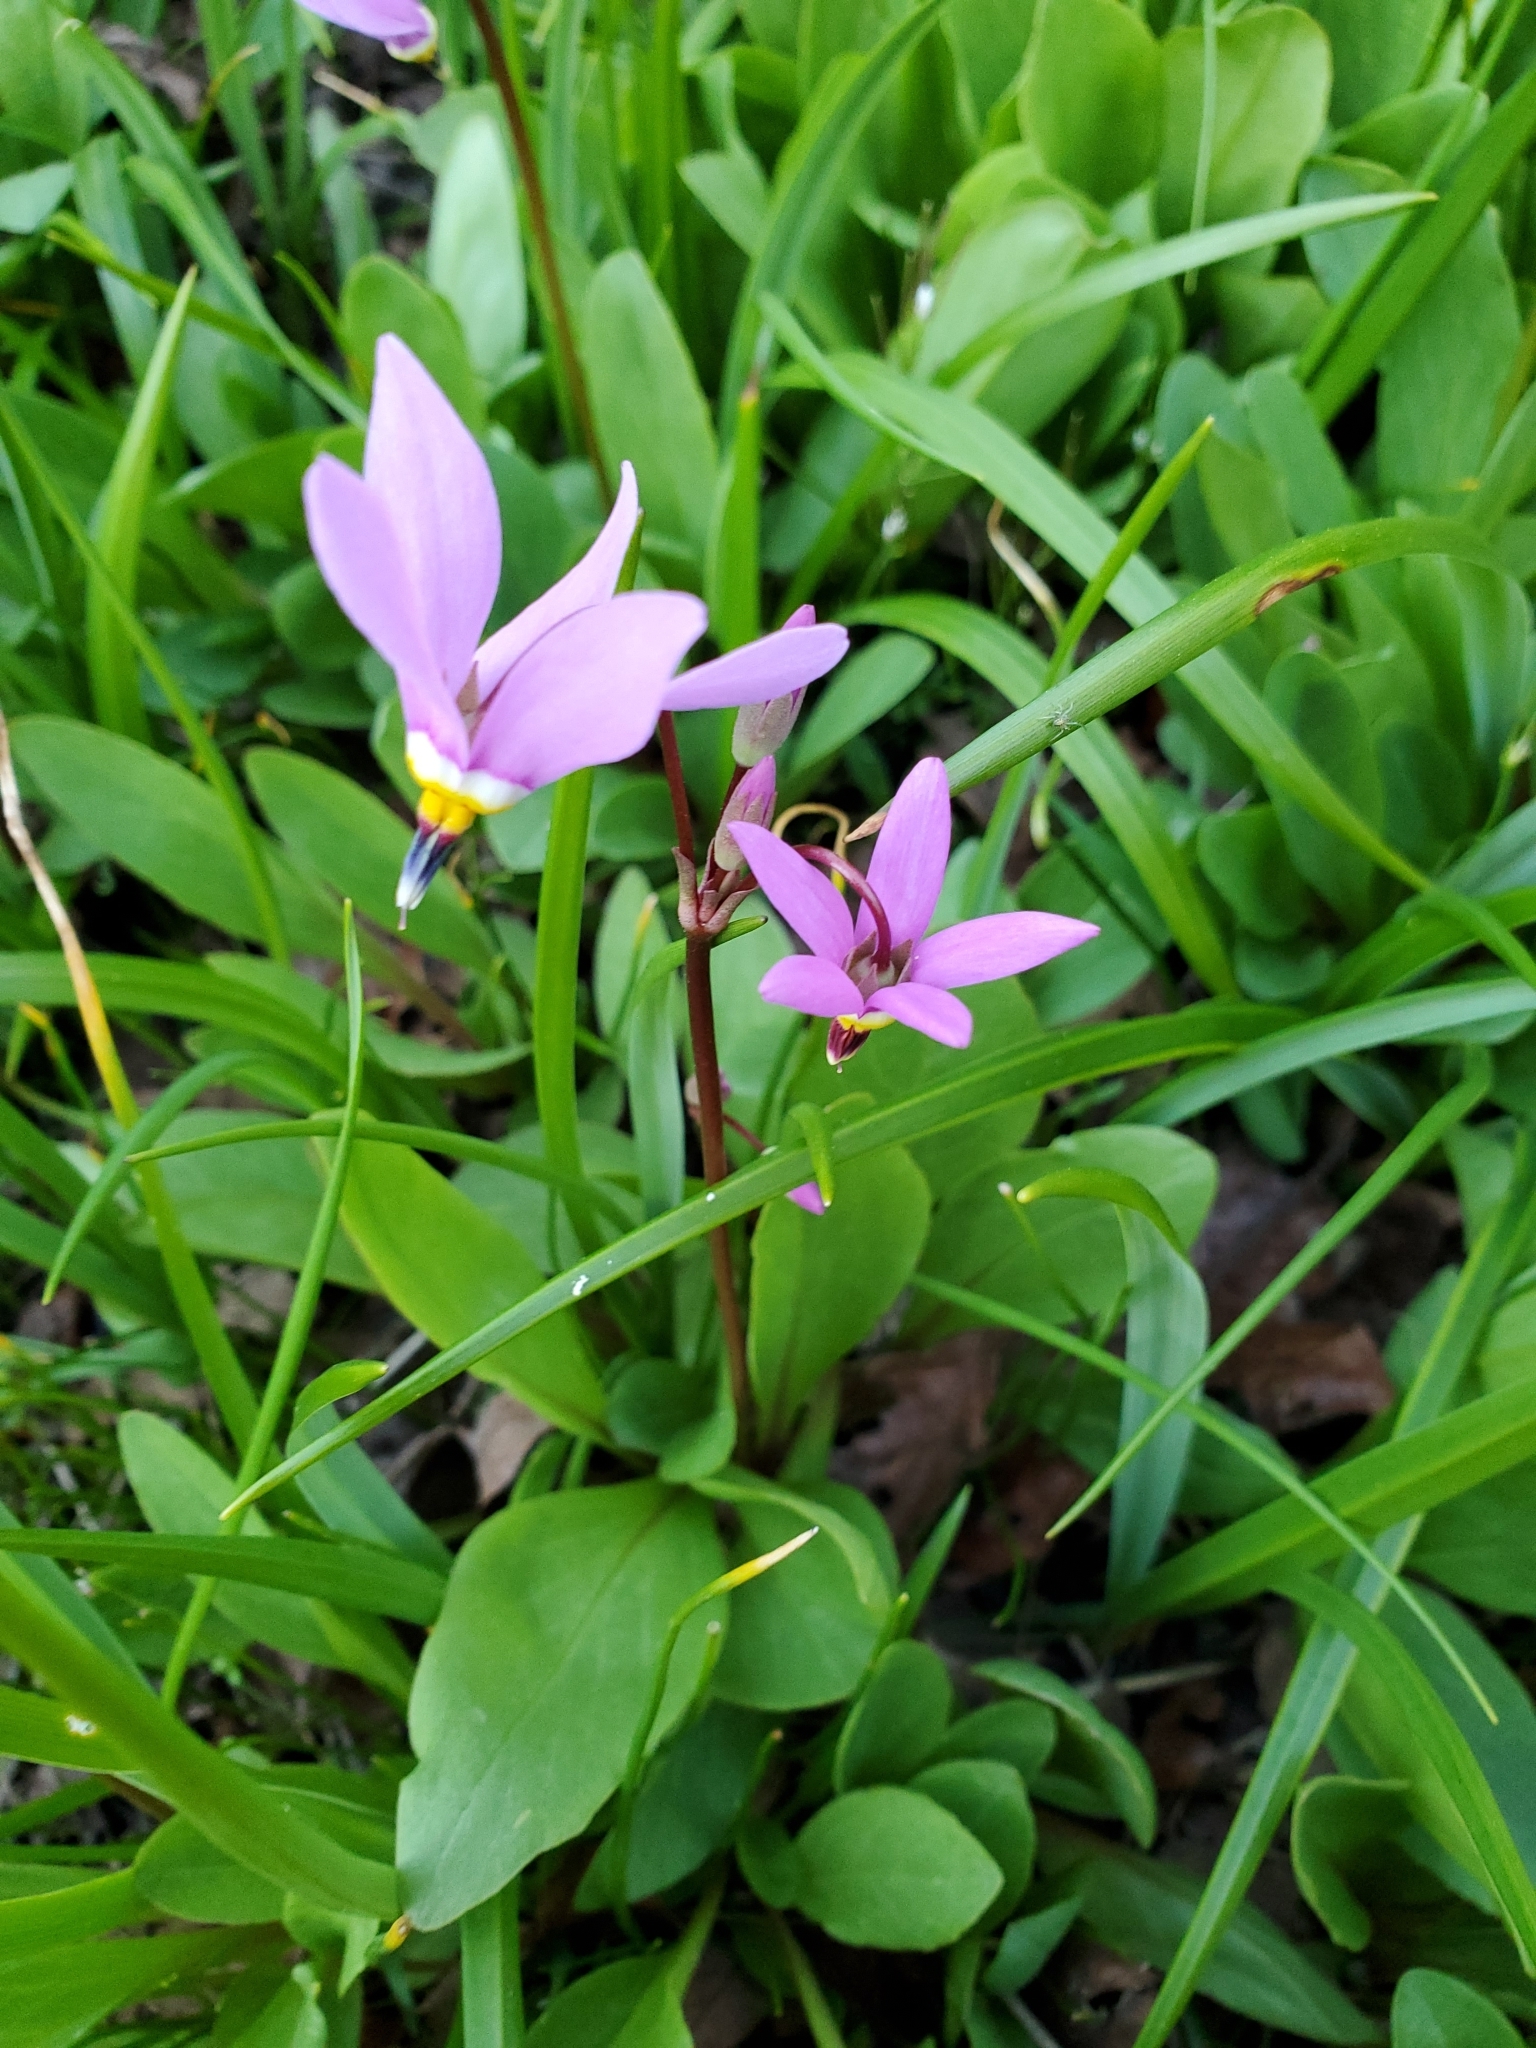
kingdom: Plantae
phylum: Tracheophyta
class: Magnoliopsida
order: Ericales
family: Primulaceae
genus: Dodecatheon
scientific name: Dodecatheon pulchellum
